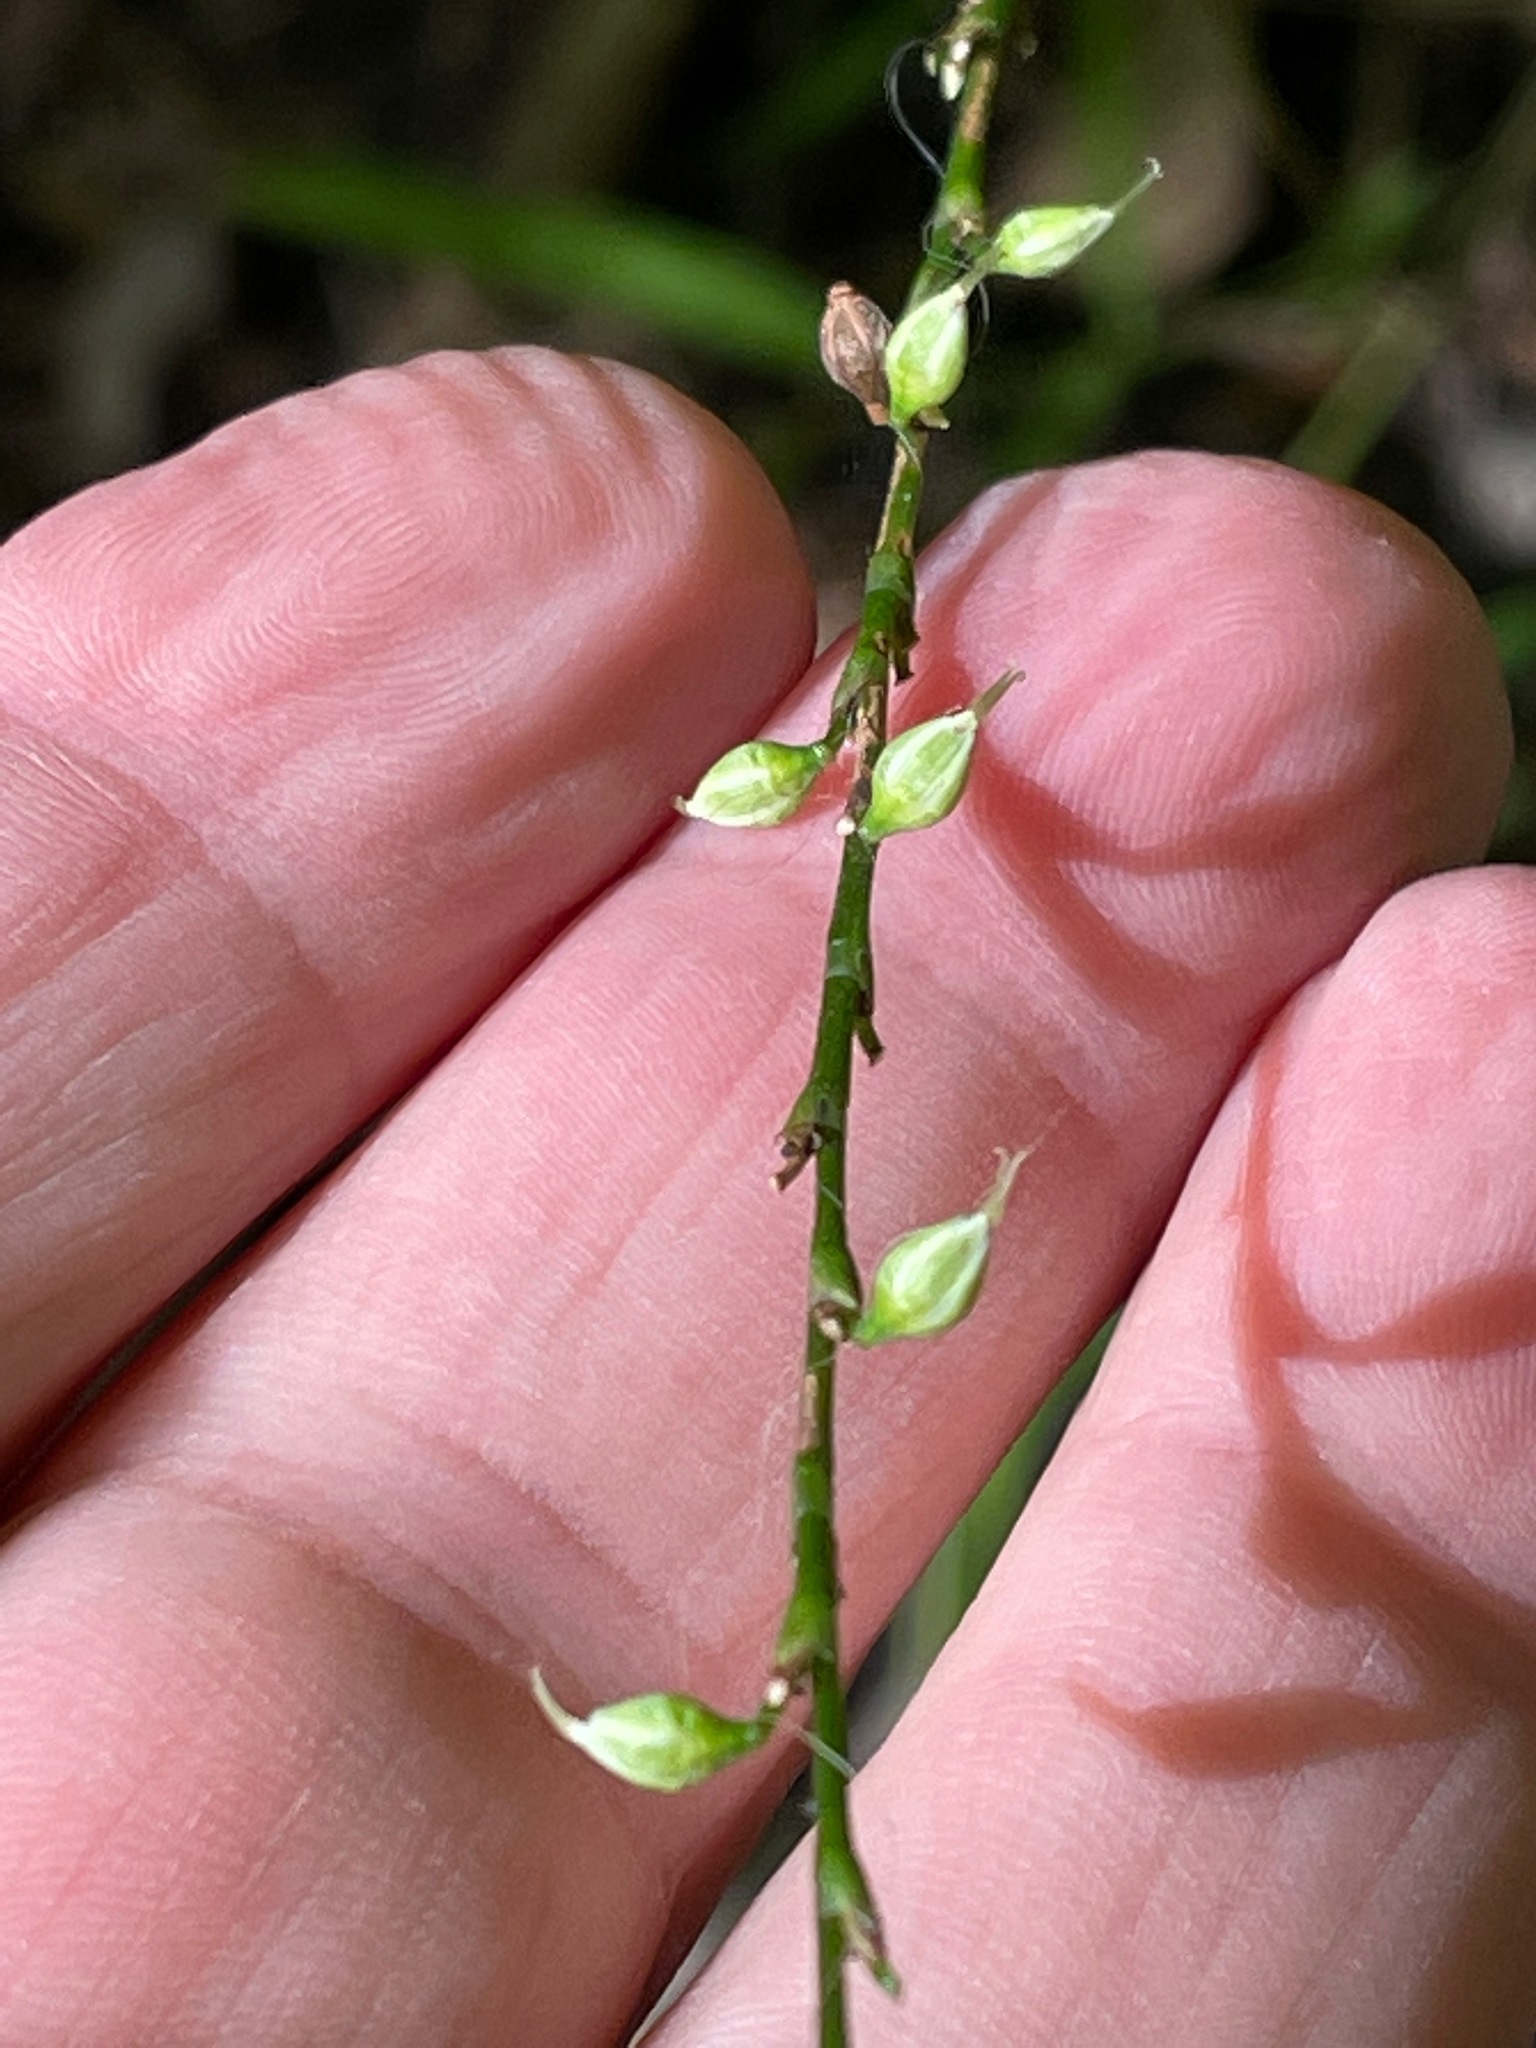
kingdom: Plantae
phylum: Tracheophyta
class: Magnoliopsida
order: Caryophyllales
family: Polygonaceae
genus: Persicaria
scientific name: Persicaria virginiana
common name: Jumpseed
